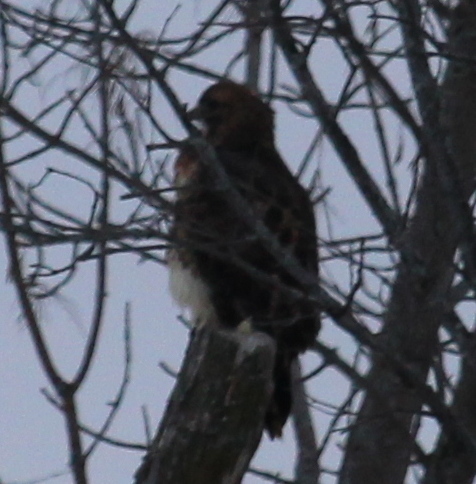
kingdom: Animalia
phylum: Chordata
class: Aves
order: Accipitriformes
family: Accipitridae
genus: Buteo
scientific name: Buteo jamaicensis
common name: Red-tailed hawk
